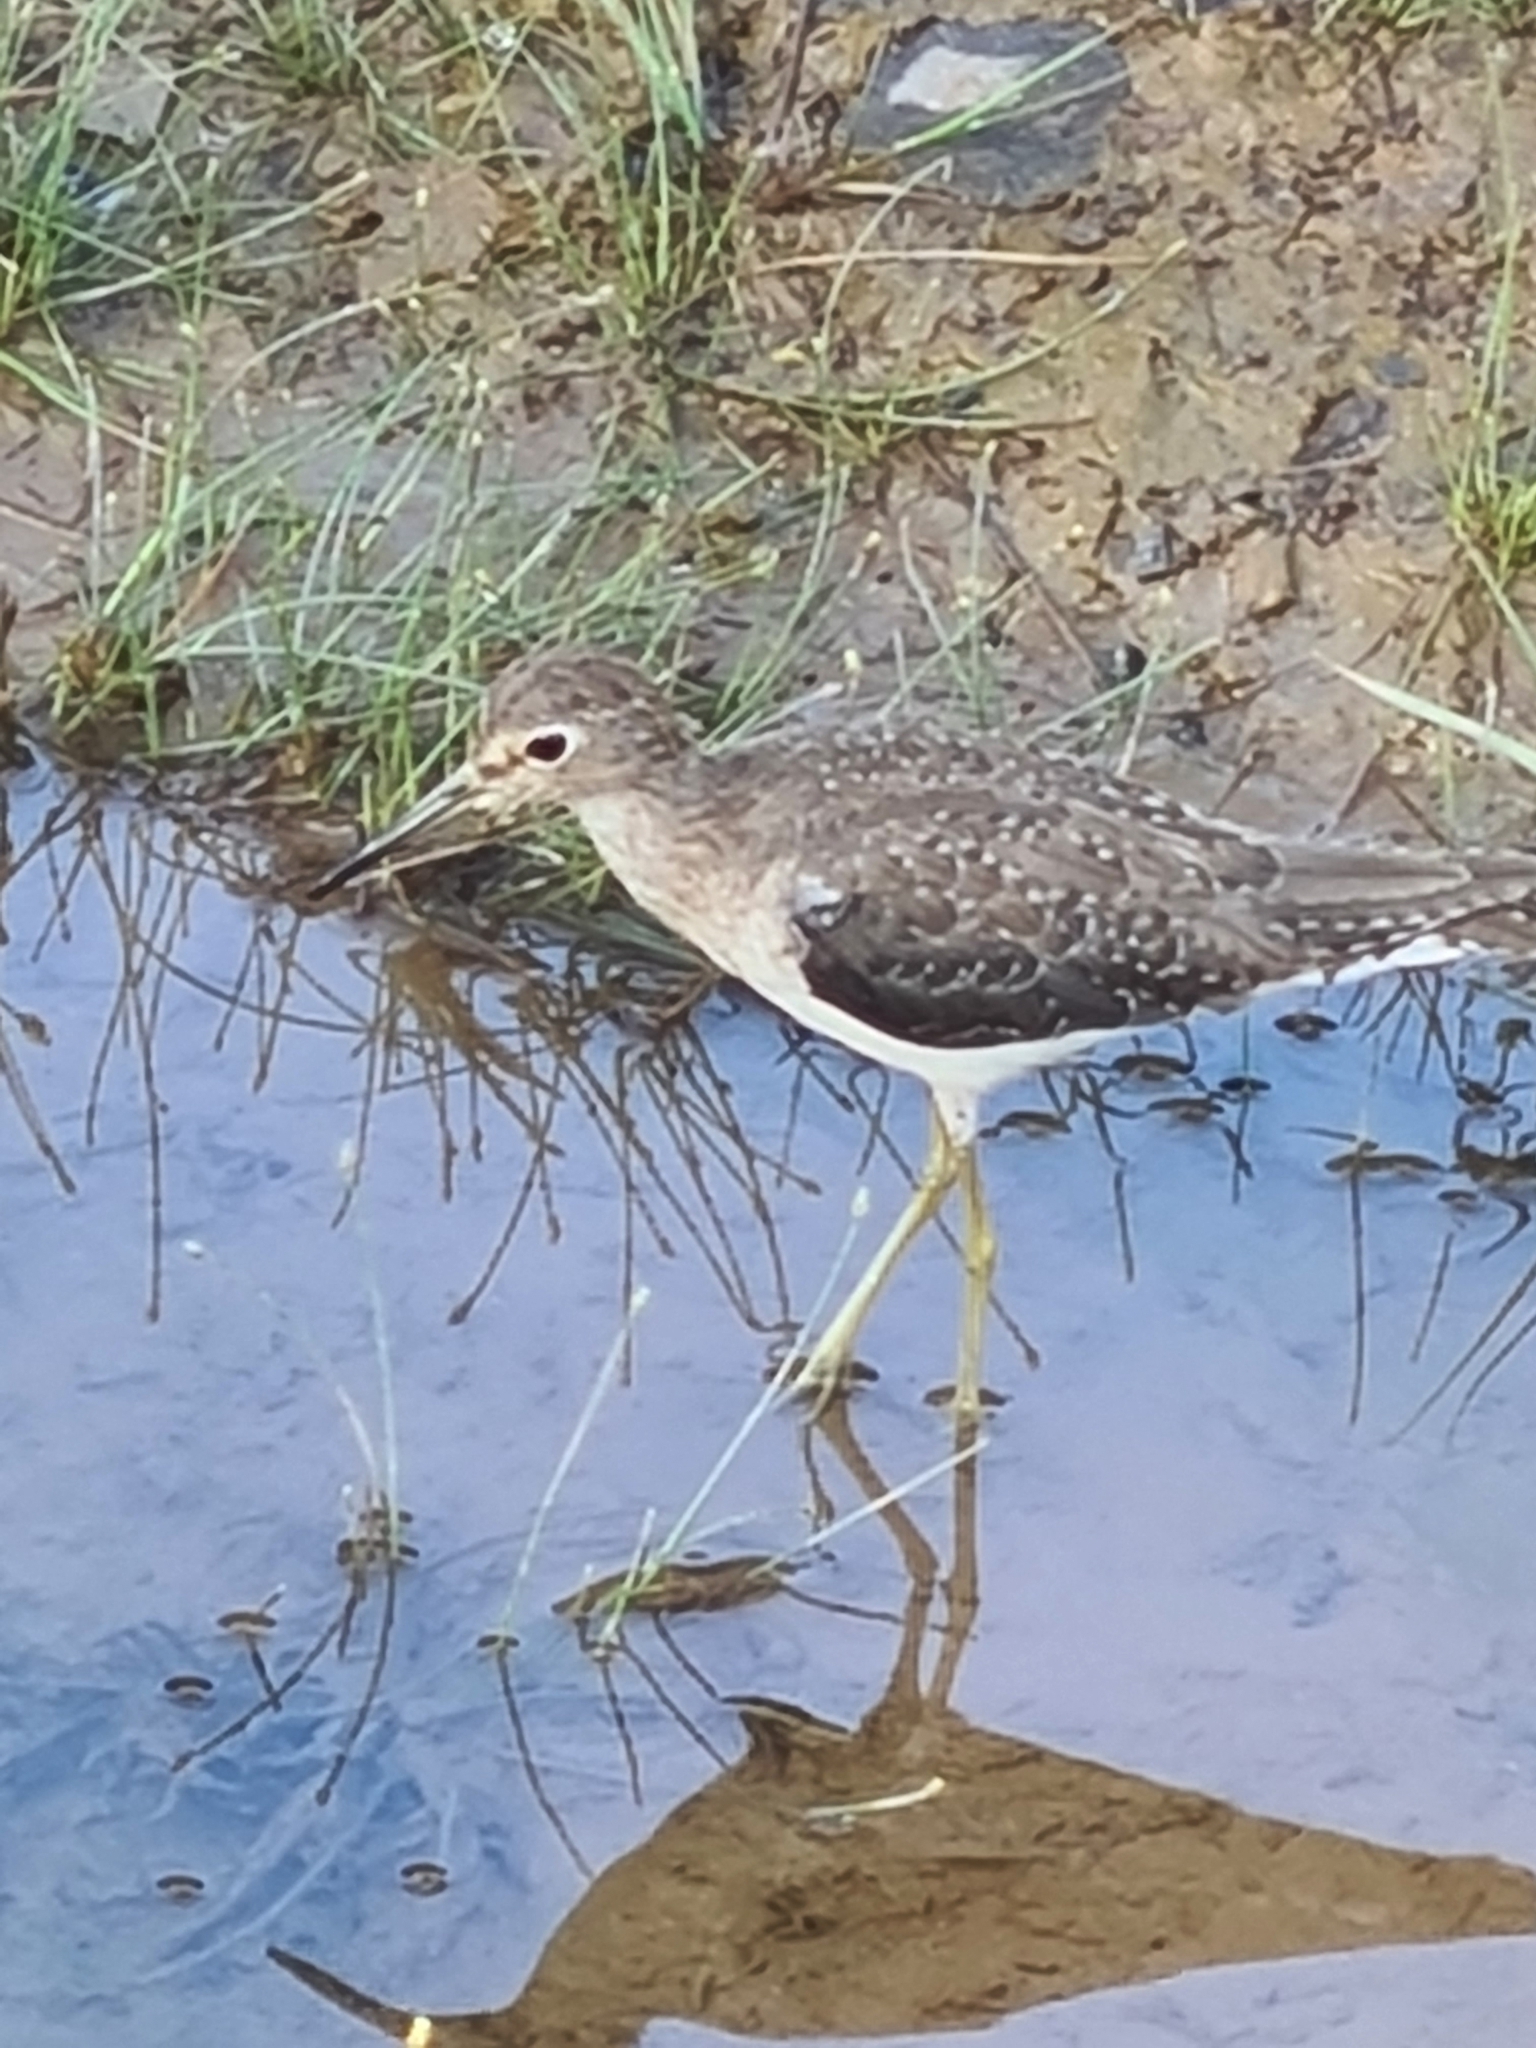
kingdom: Animalia
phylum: Chordata
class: Aves
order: Charadriiformes
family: Scolopacidae
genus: Tringa
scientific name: Tringa solitaria
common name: Solitary sandpiper
